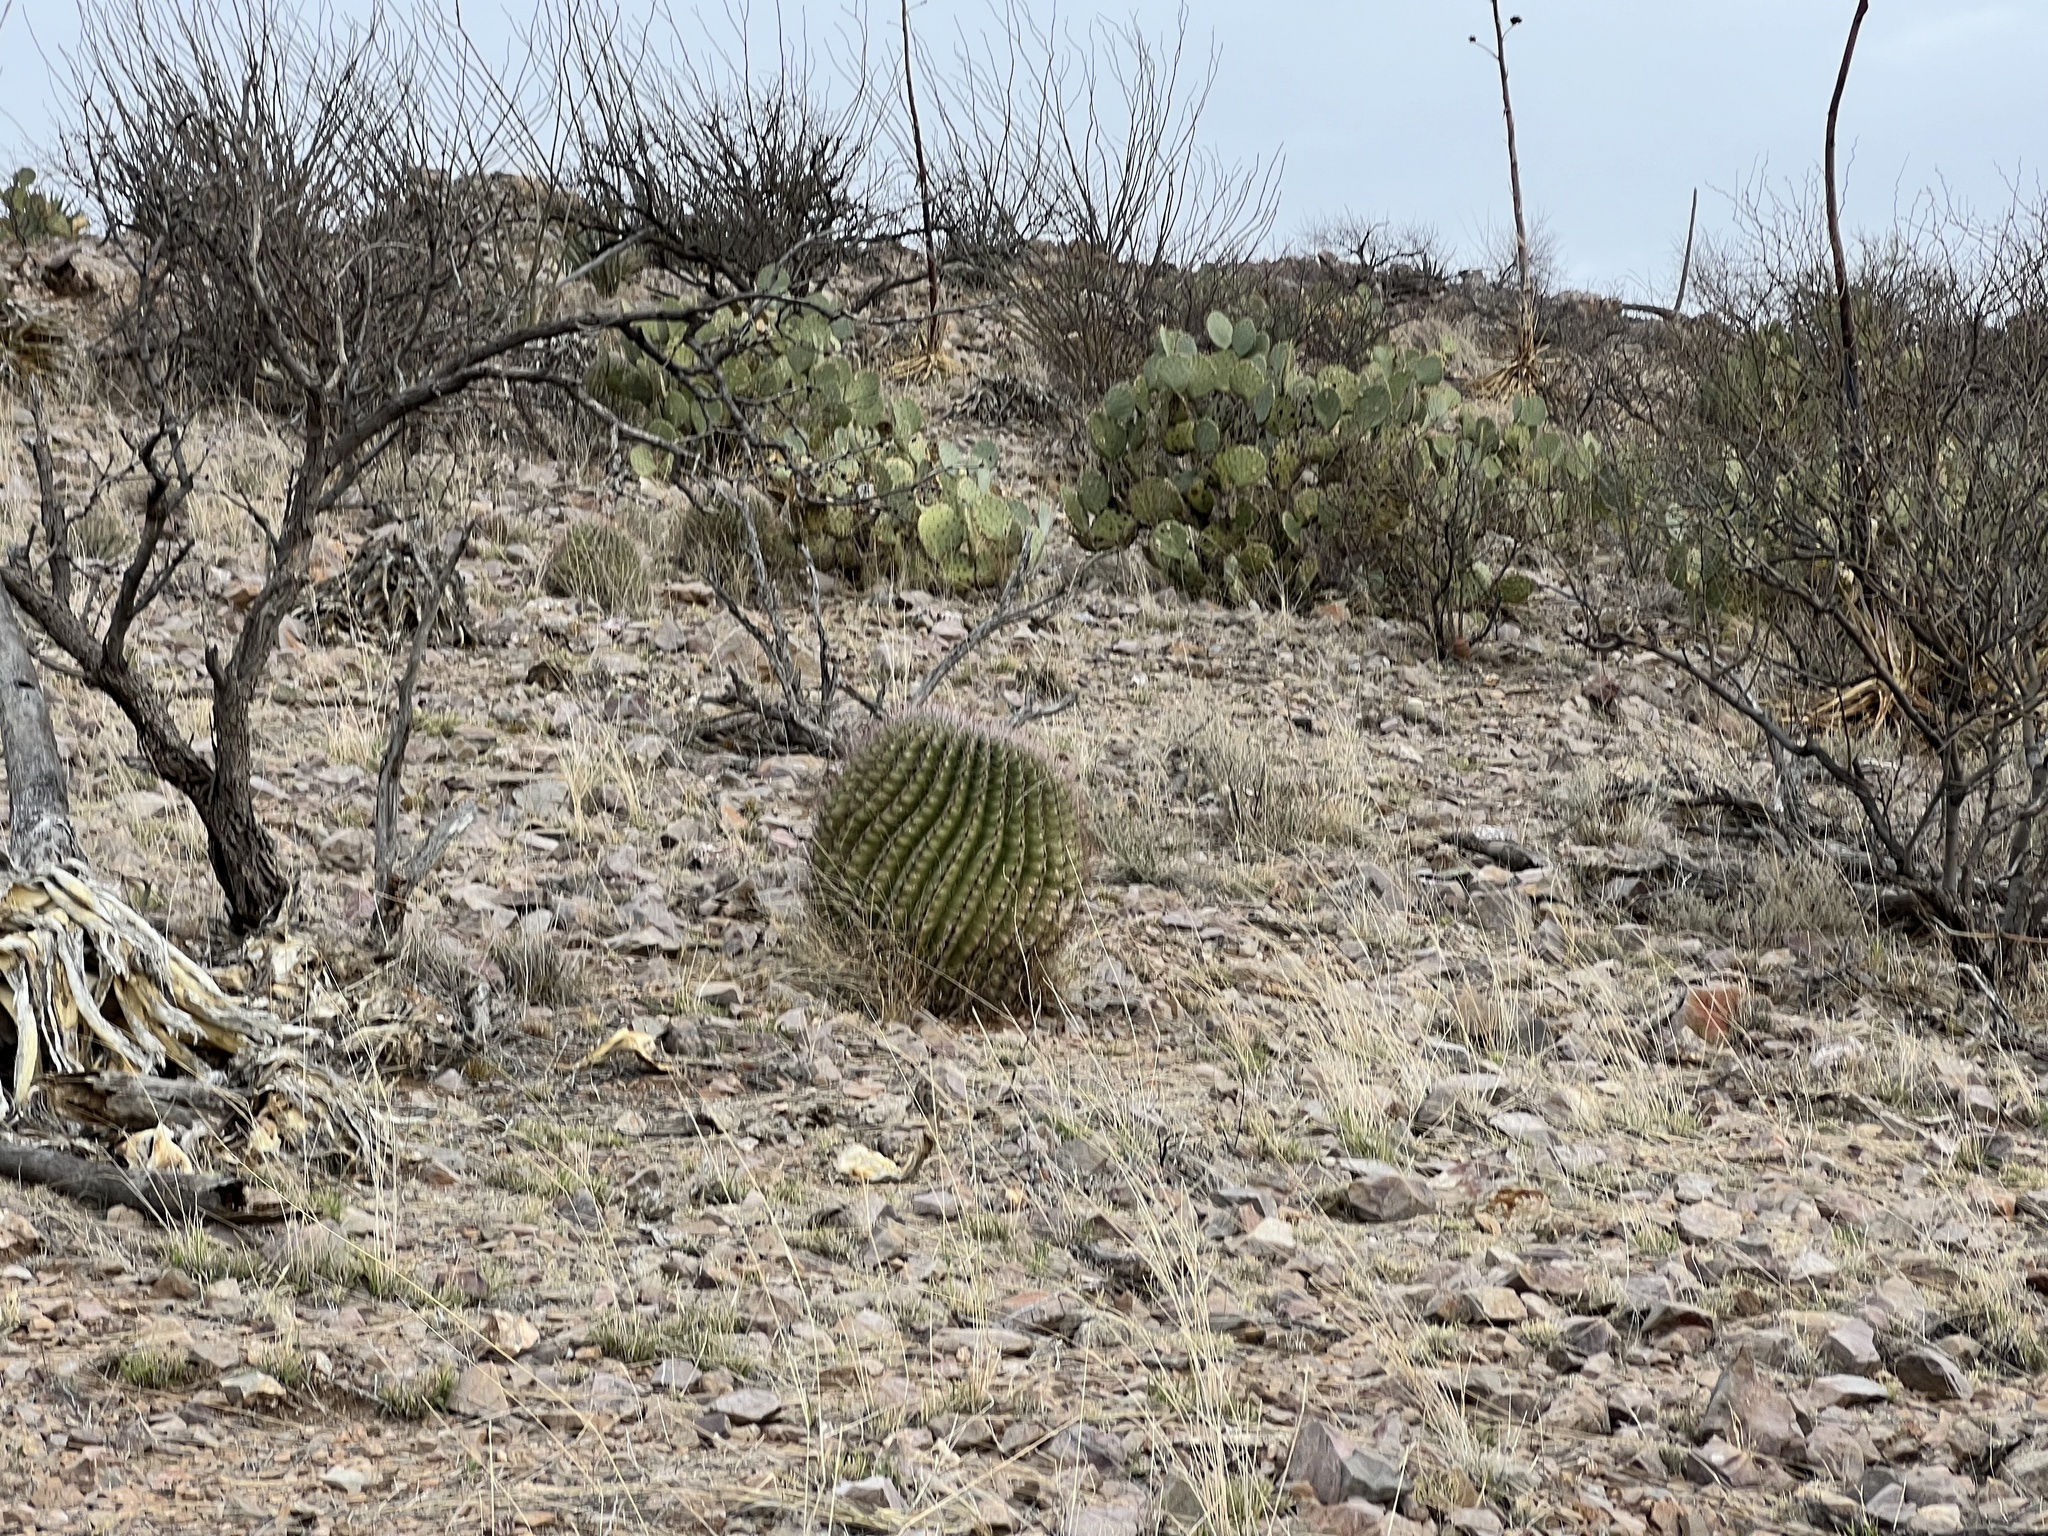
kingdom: Plantae
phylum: Tracheophyta
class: Magnoliopsida
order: Caryophyllales
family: Cactaceae
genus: Ferocactus
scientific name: Ferocactus wislizeni
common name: Candy barrel cactus
